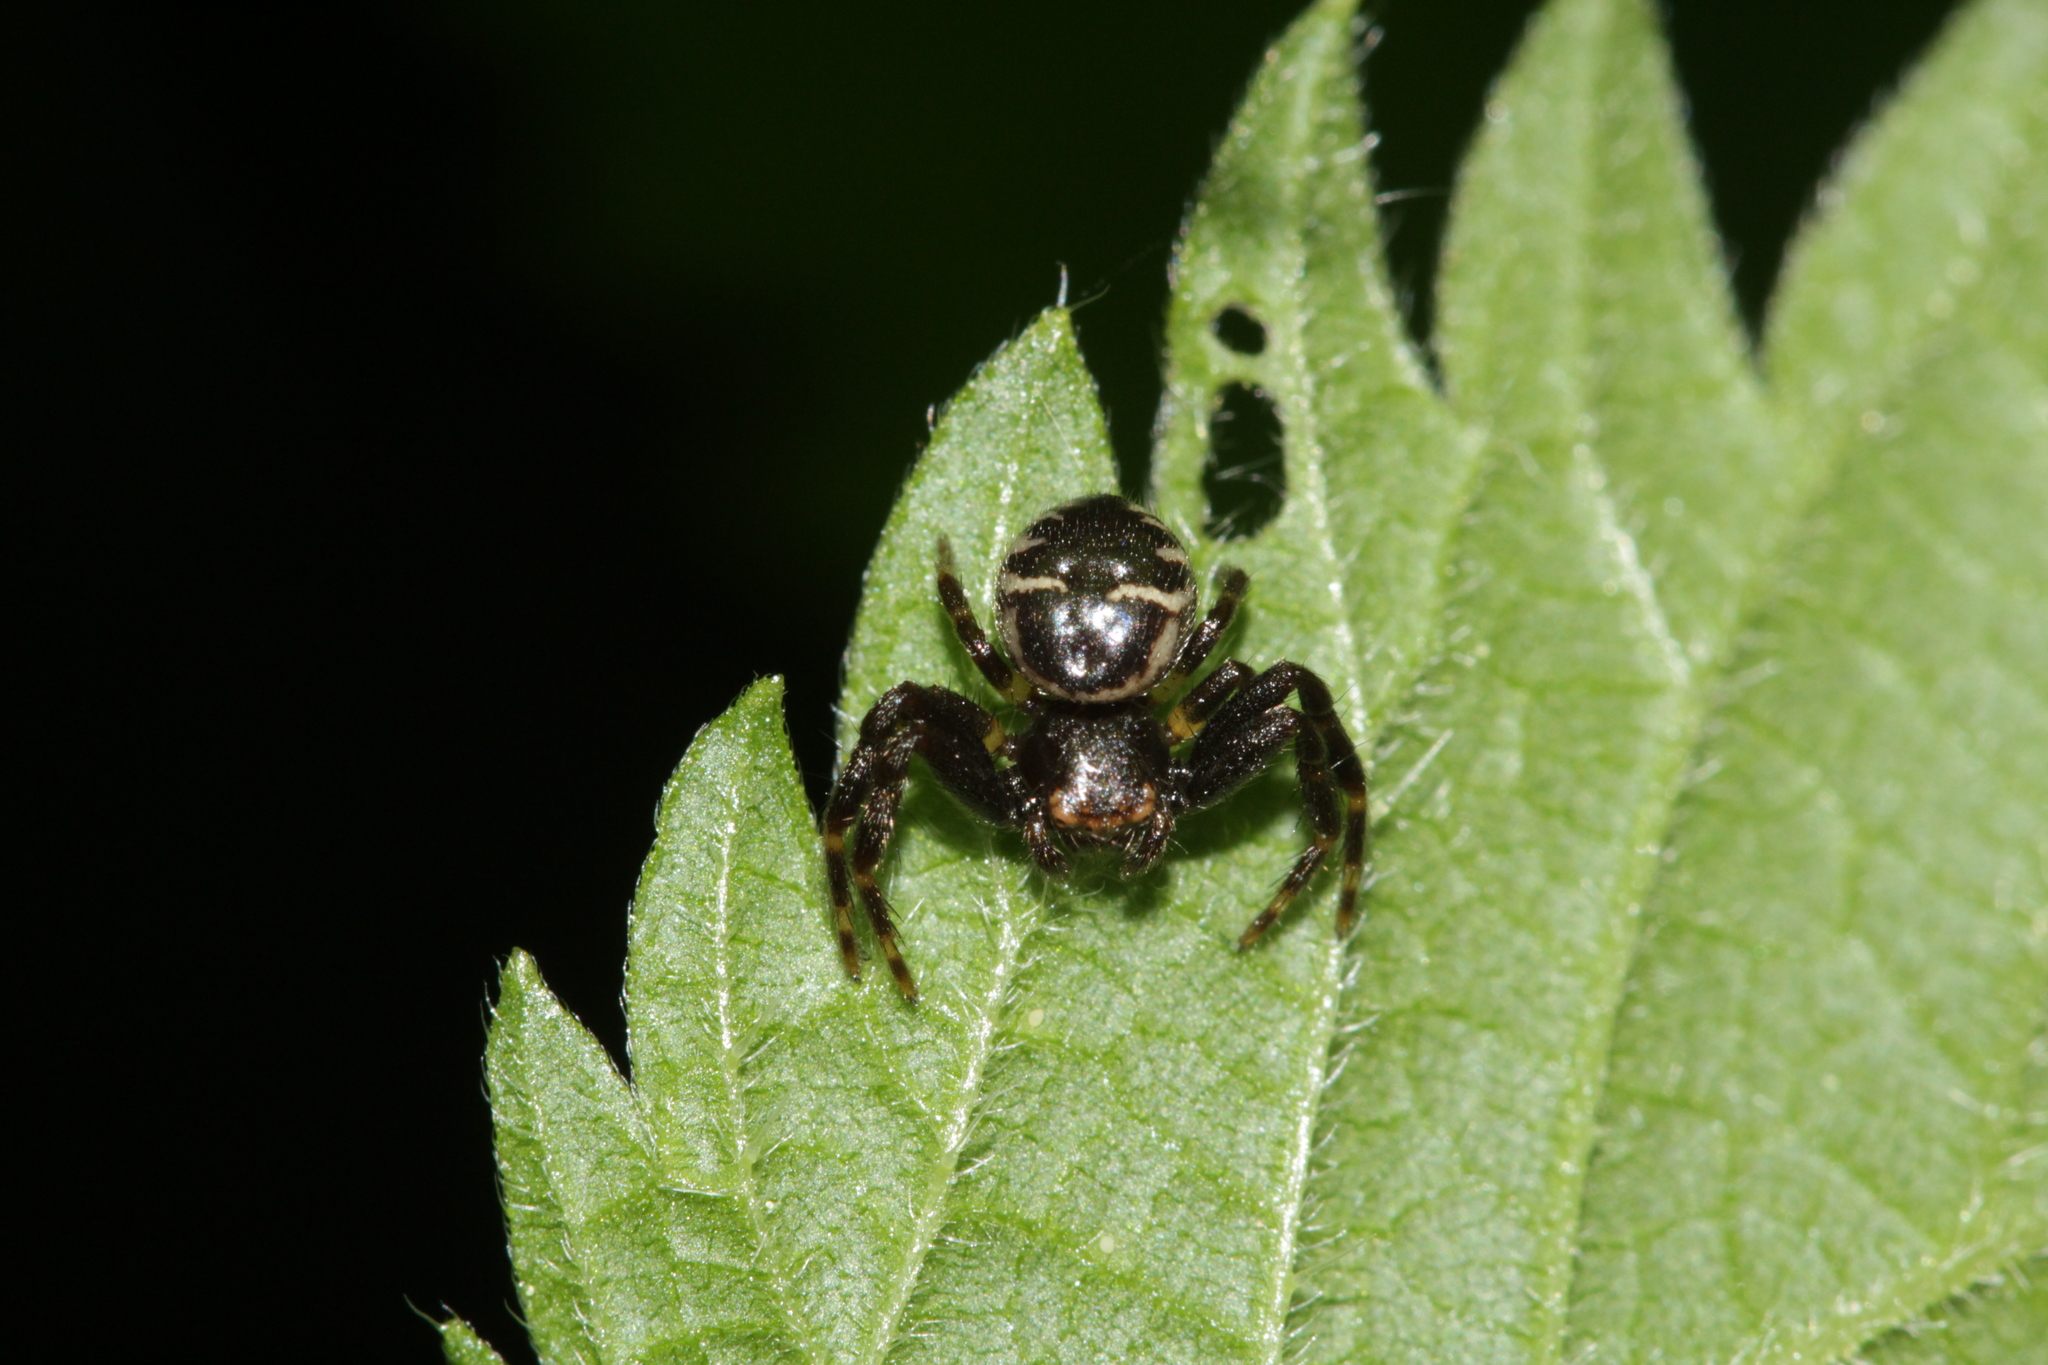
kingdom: Animalia
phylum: Arthropoda
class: Arachnida
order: Araneae
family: Thomisidae
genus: Synema
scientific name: Synema globosum
